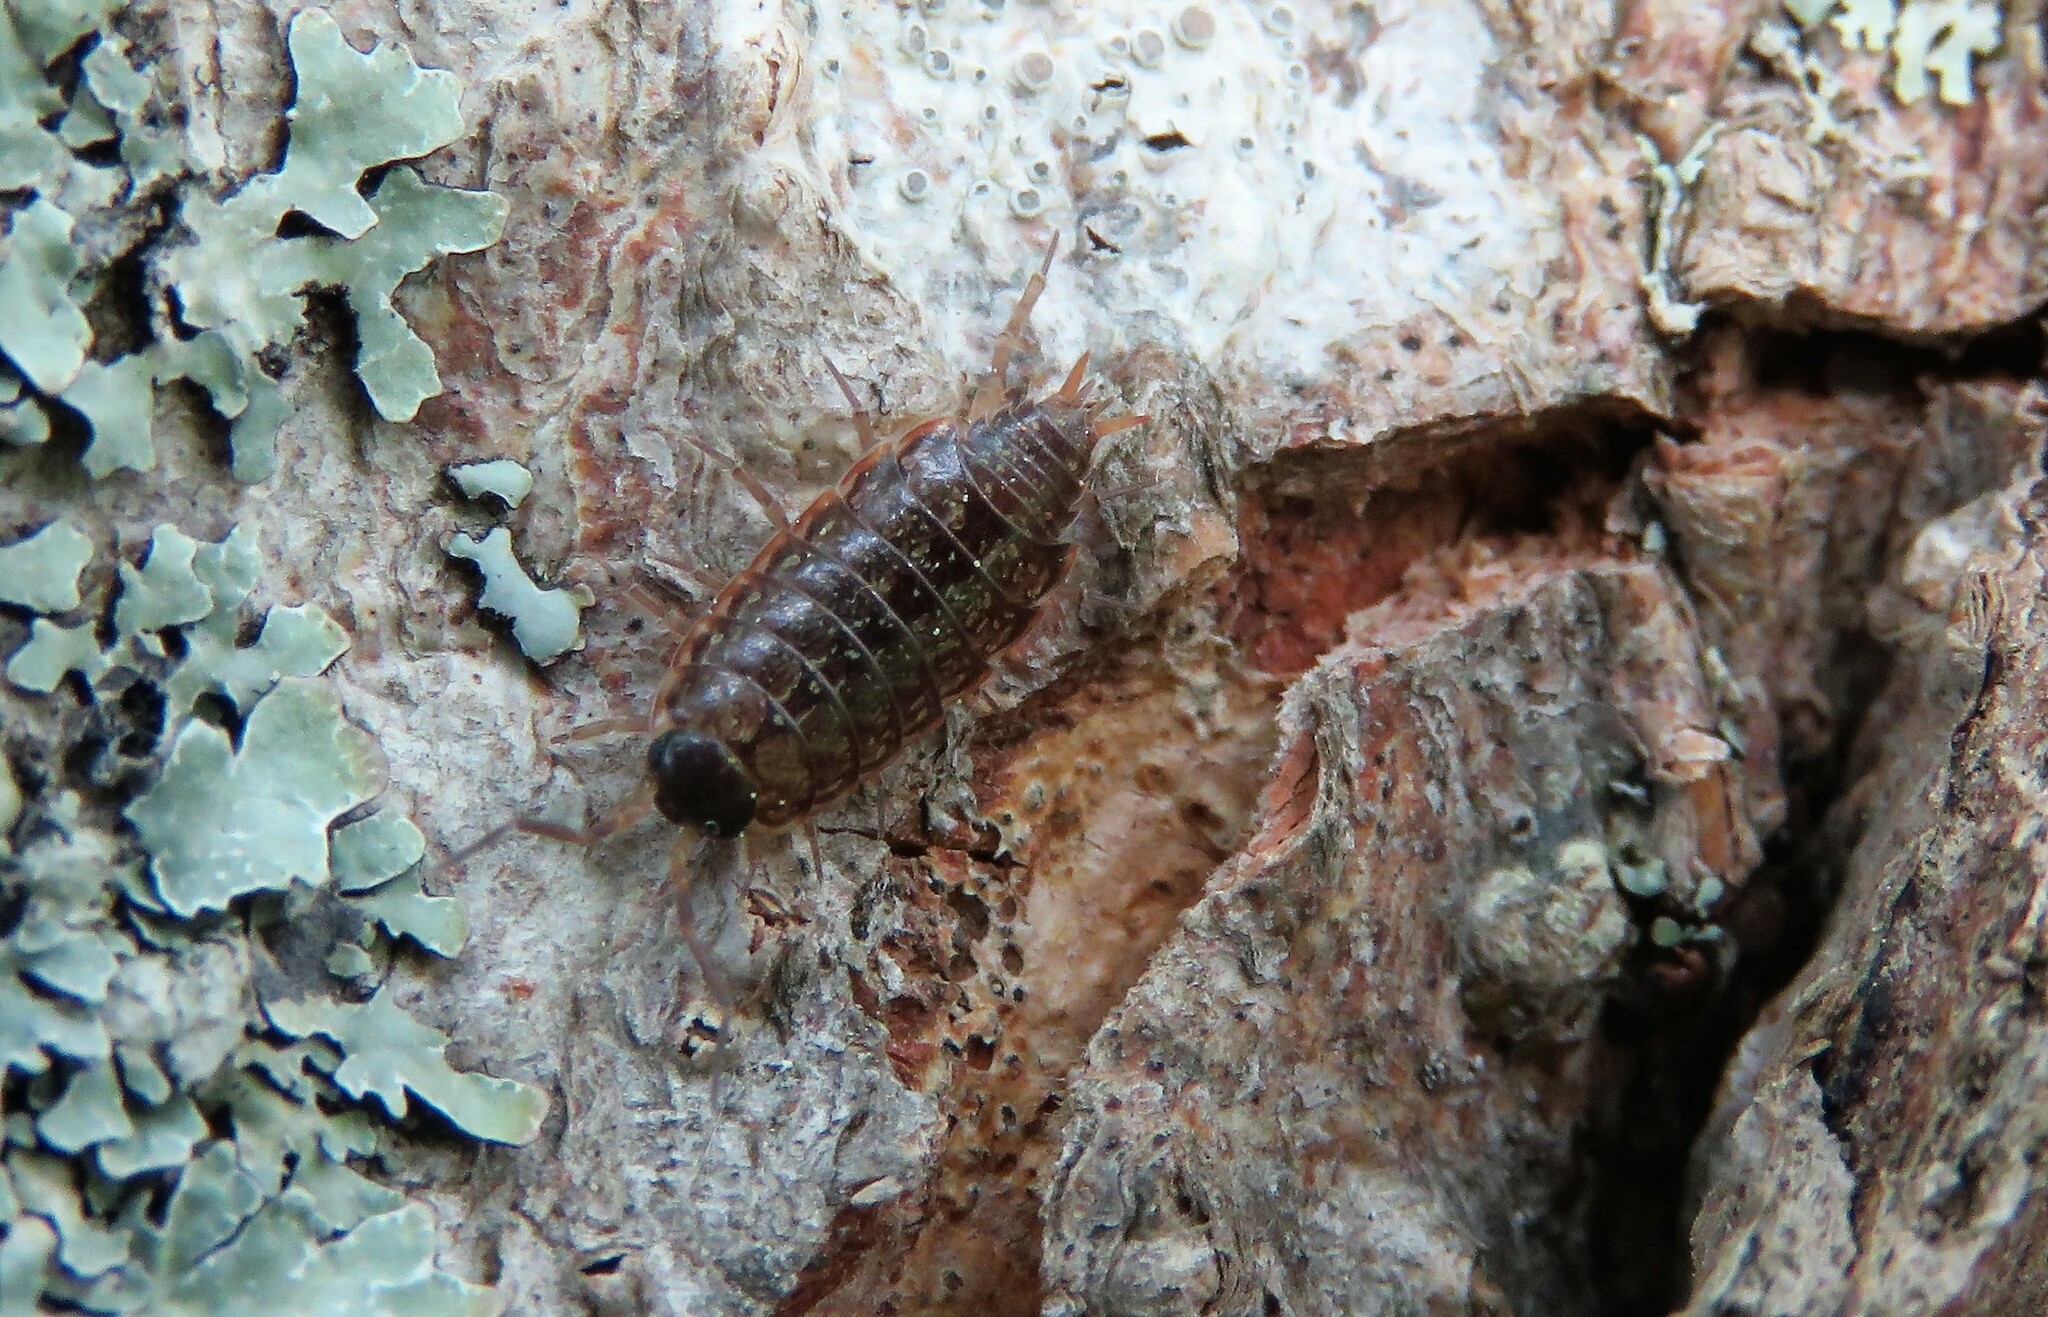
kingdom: Animalia
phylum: Arthropoda
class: Malacostraca
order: Isopoda
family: Philosciidae
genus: Philoscia
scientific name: Philoscia muscorum
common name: Common striped woodlouse
